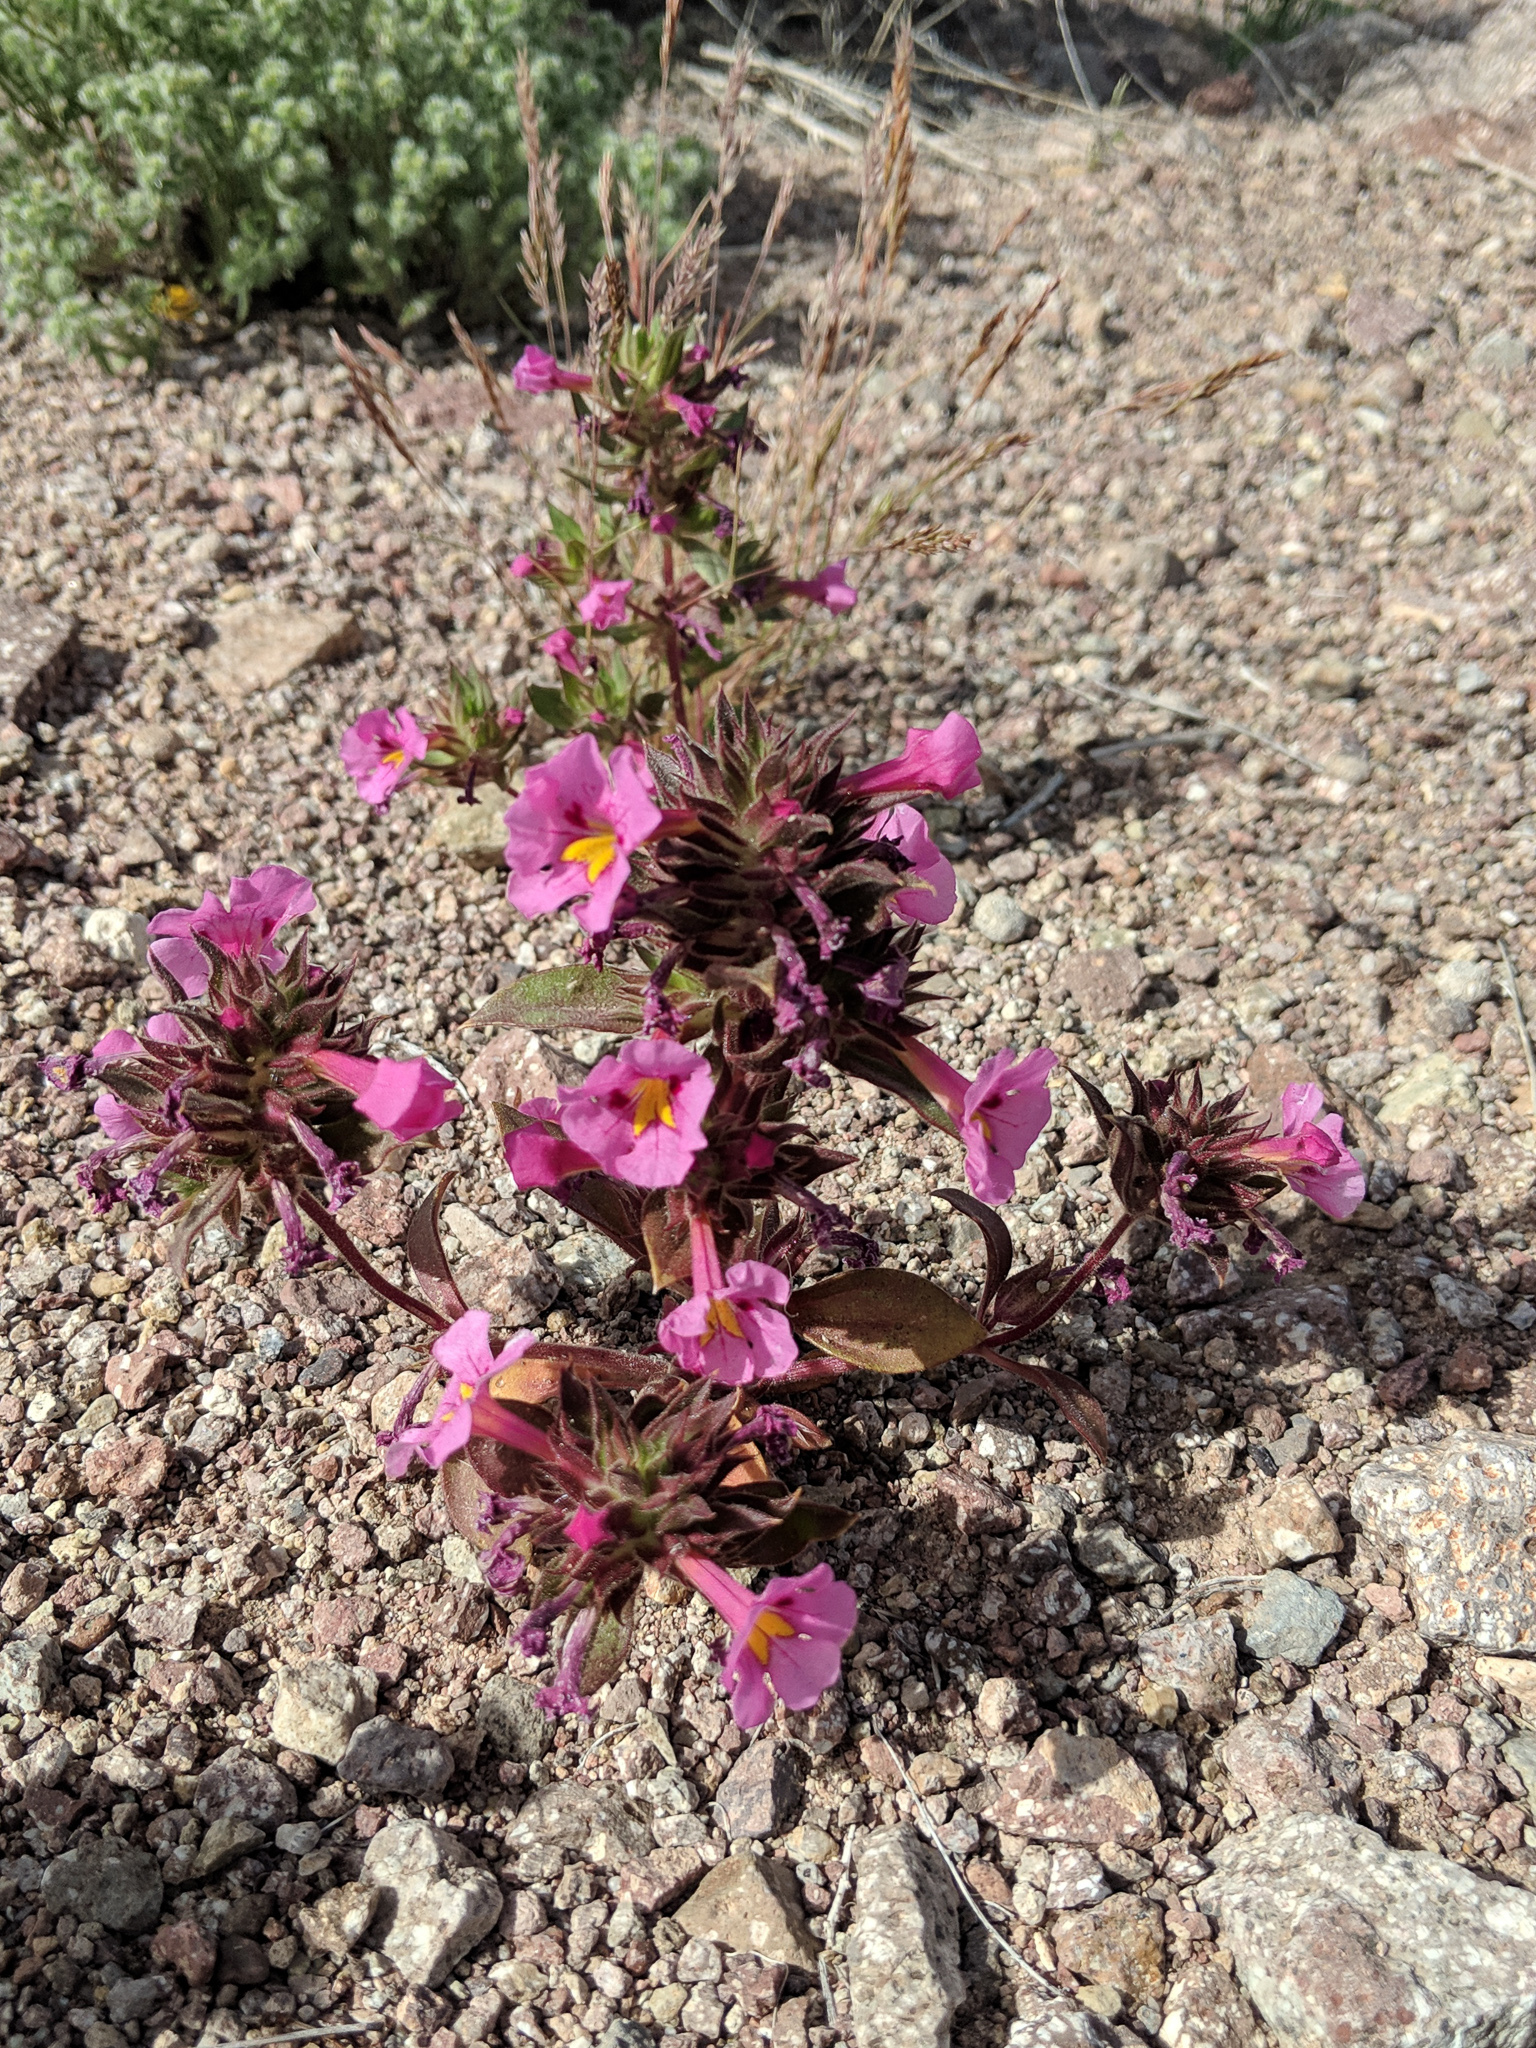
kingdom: Plantae
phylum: Tracheophyta
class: Magnoliopsida
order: Lamiales
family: Phrymaceae
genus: Diplacus
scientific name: Diplacus bigelovii
